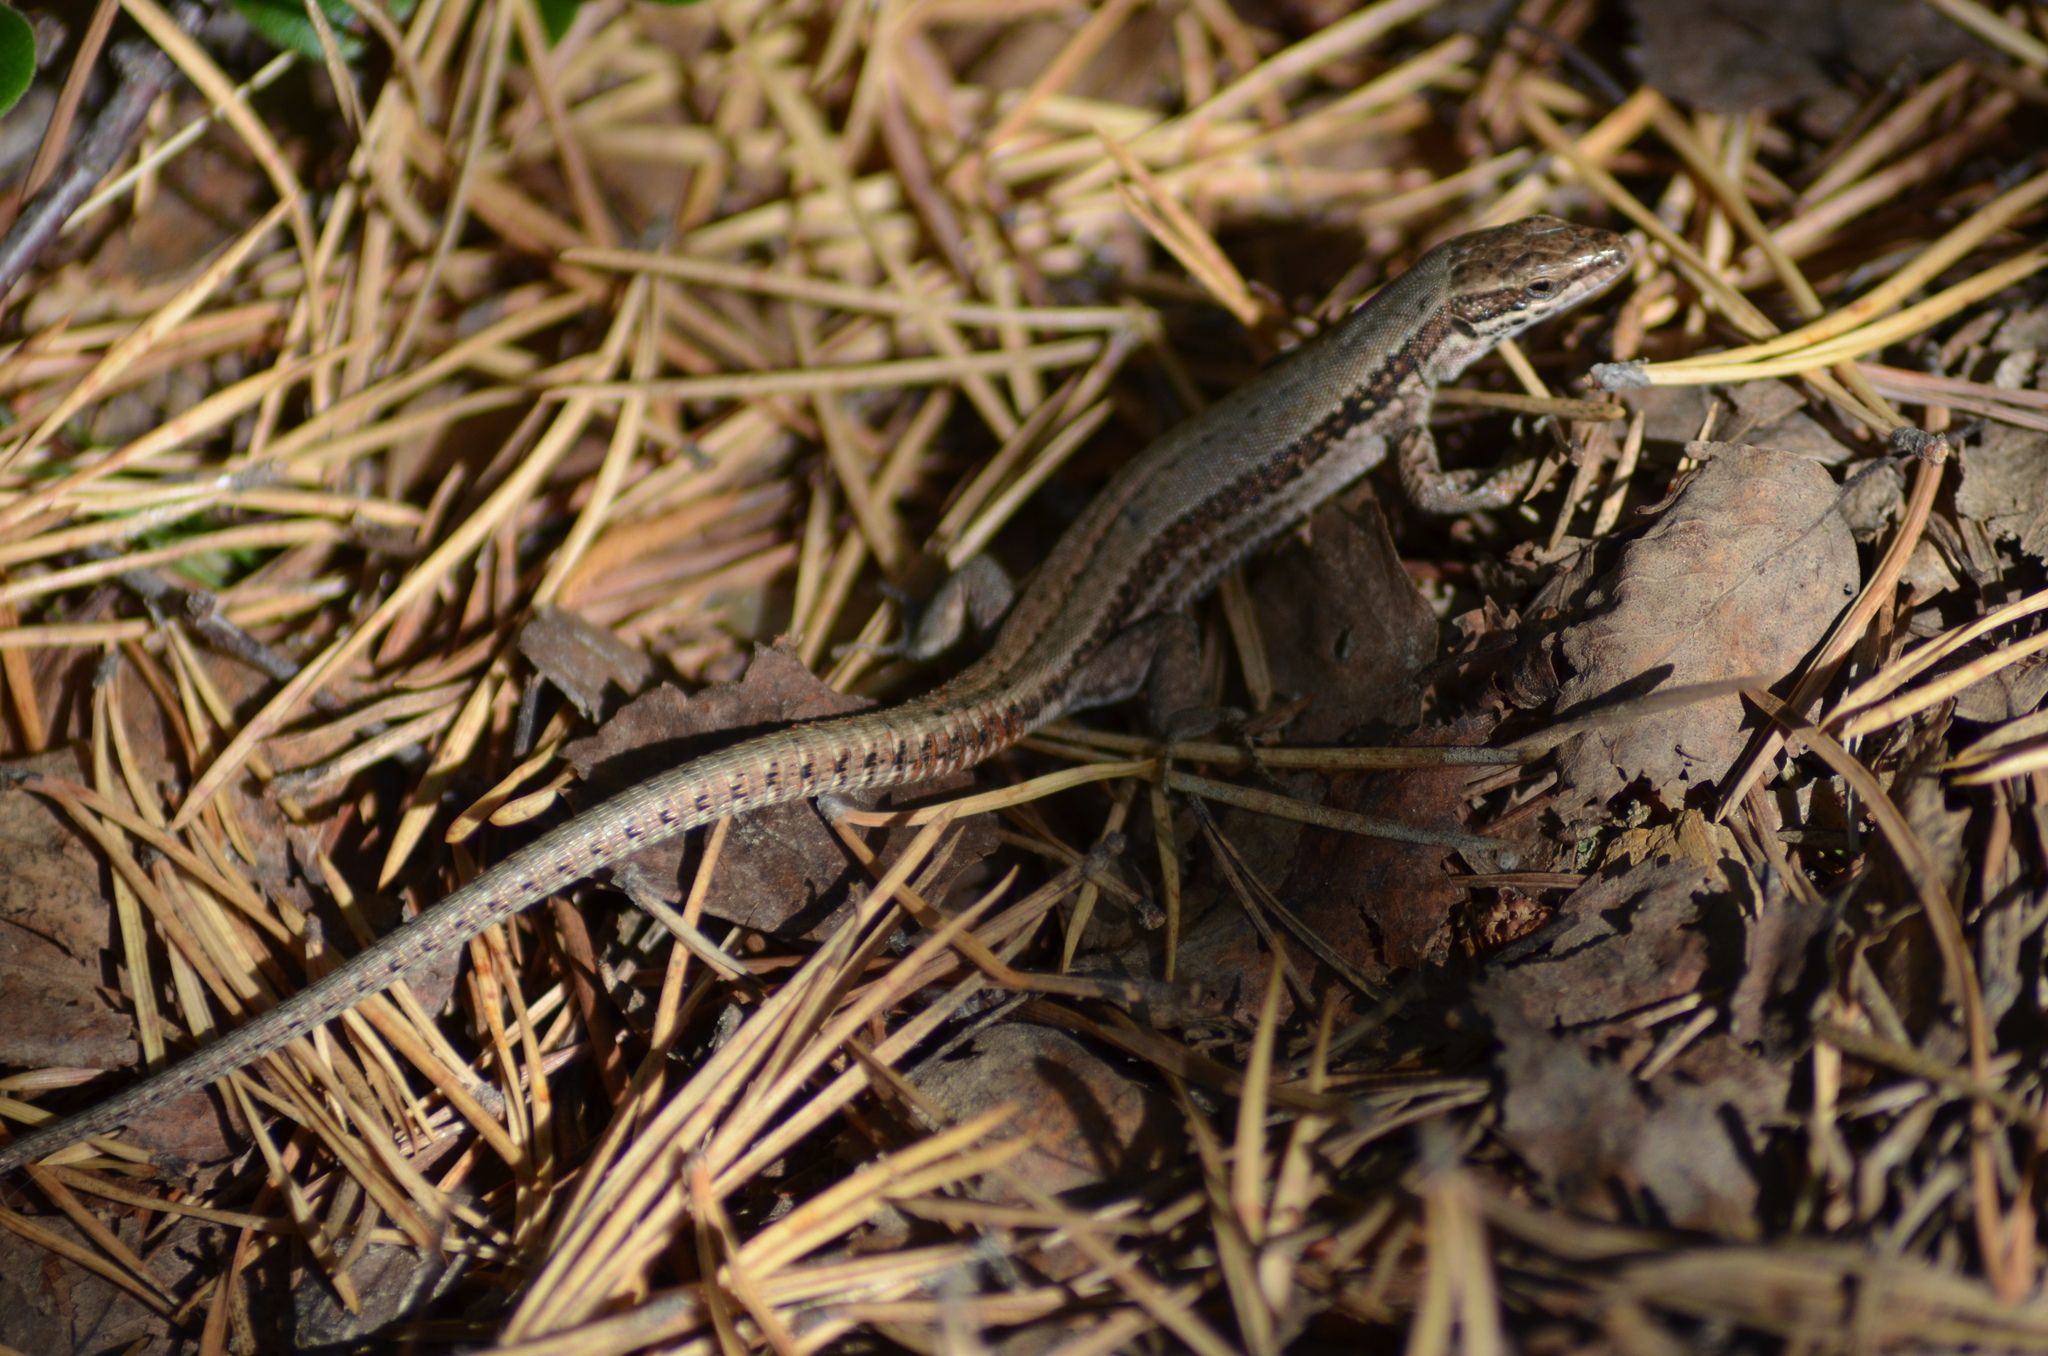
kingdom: Animalia
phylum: Chordata
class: Squamata
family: Lacertidae
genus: Podarcis
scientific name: Podarcis muralis
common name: Common wall lizard
